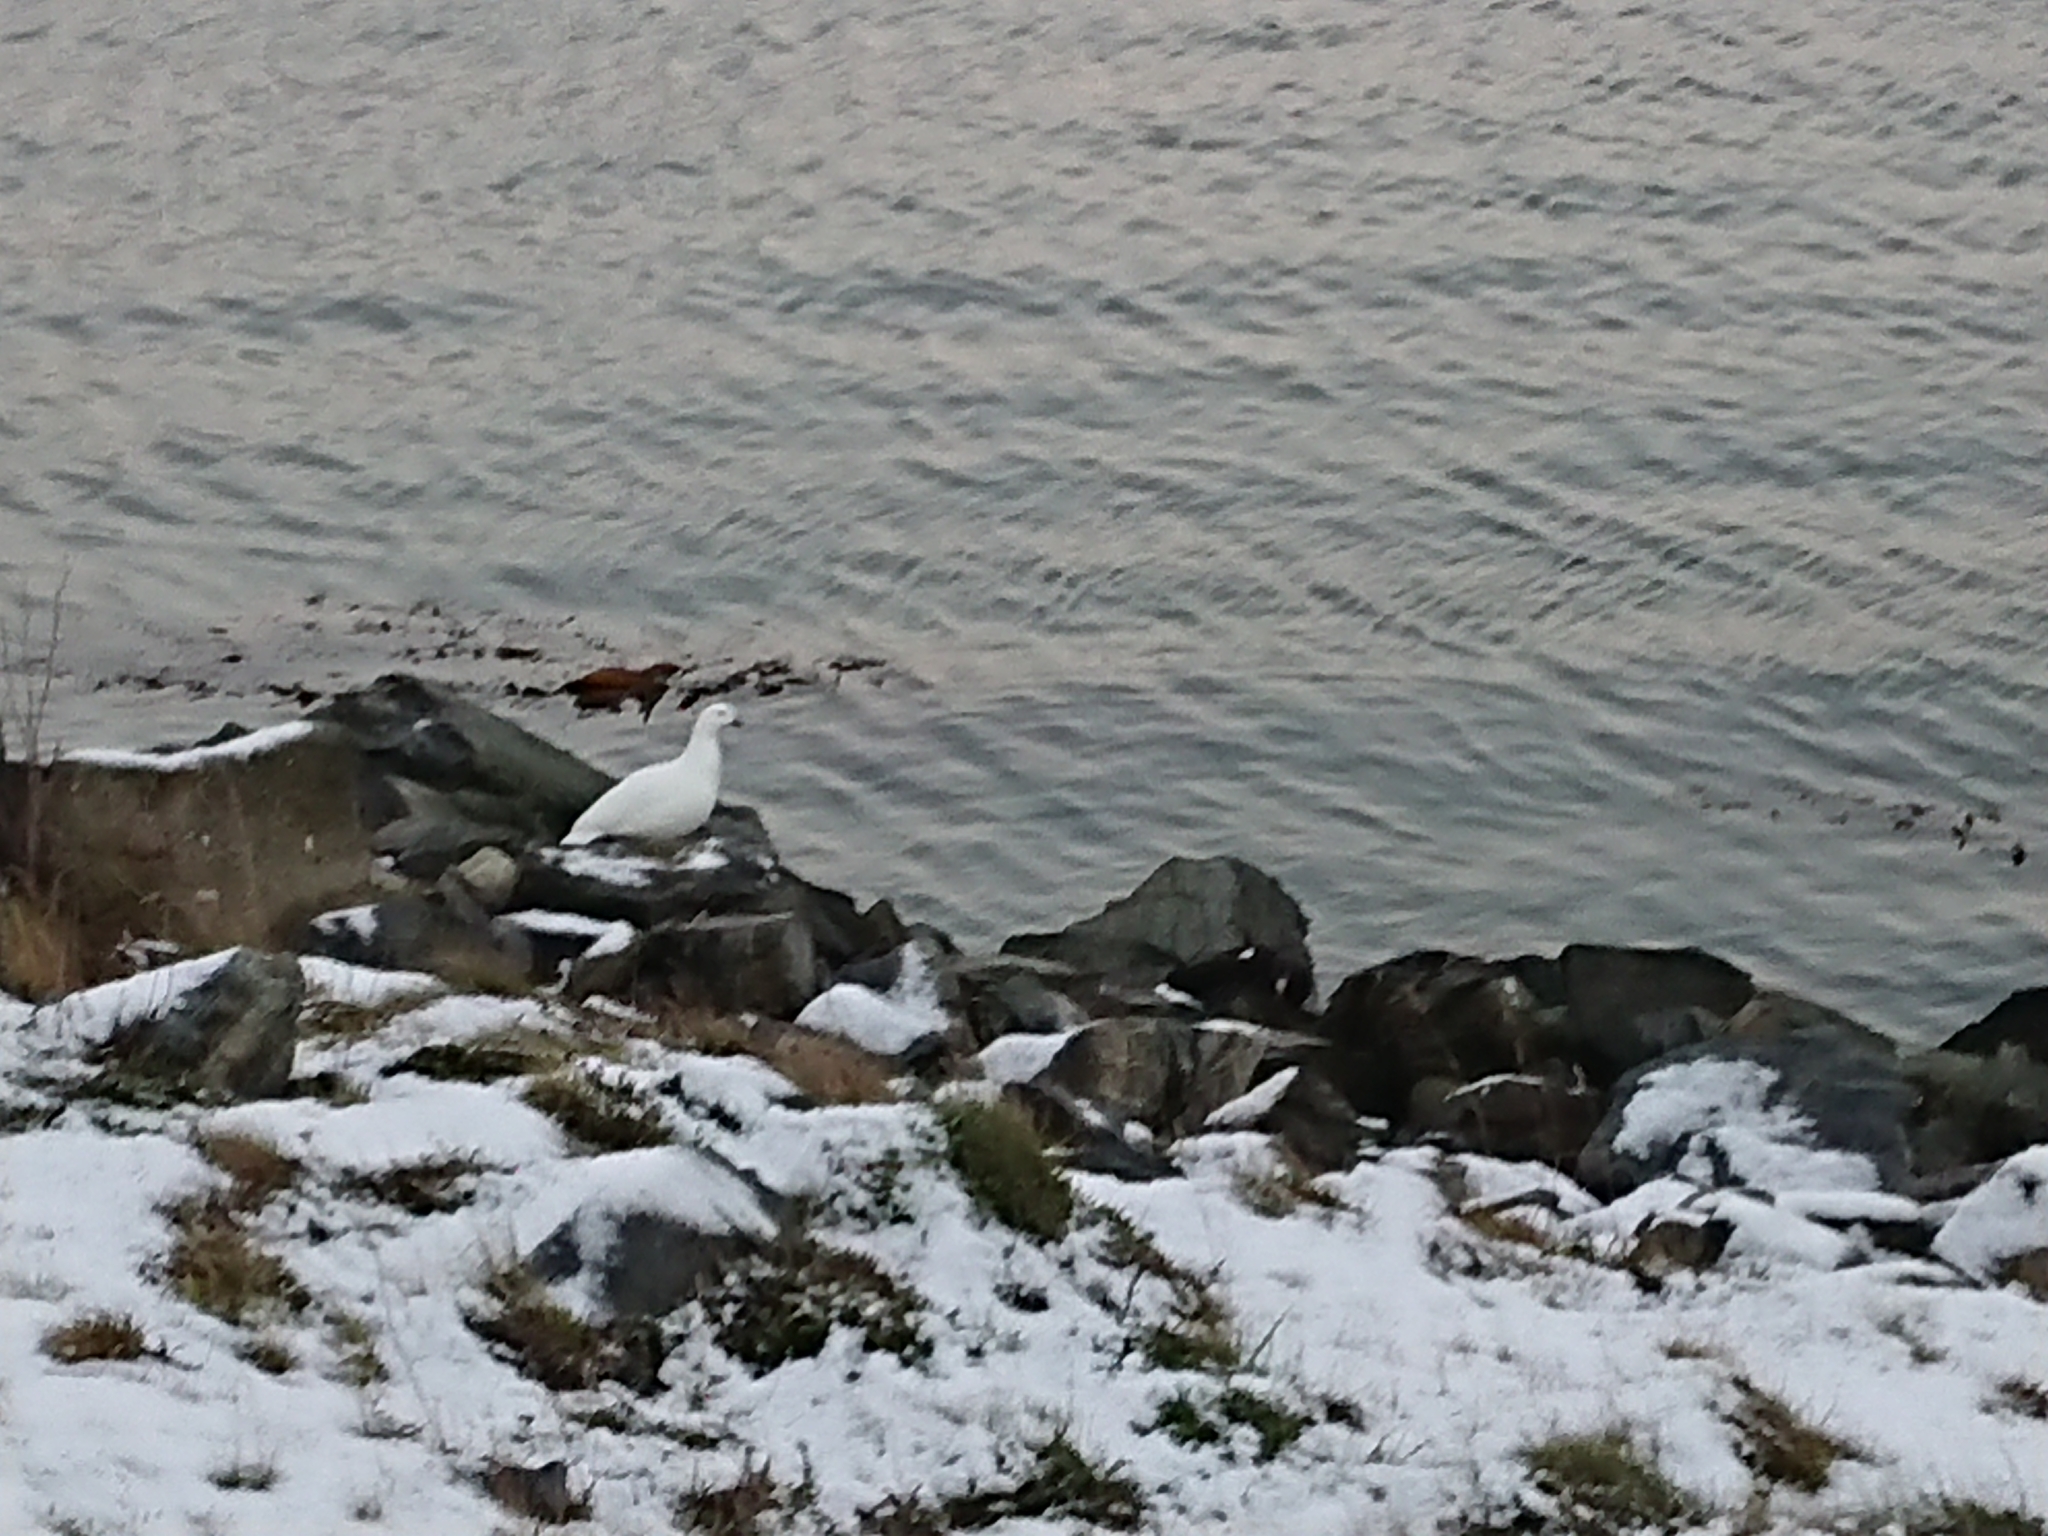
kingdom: Animalia
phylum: Chordata
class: Aves
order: Anseriformes
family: Anatidae
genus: Chloephaga
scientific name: Chloephaga hybrida
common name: Kelp goose
